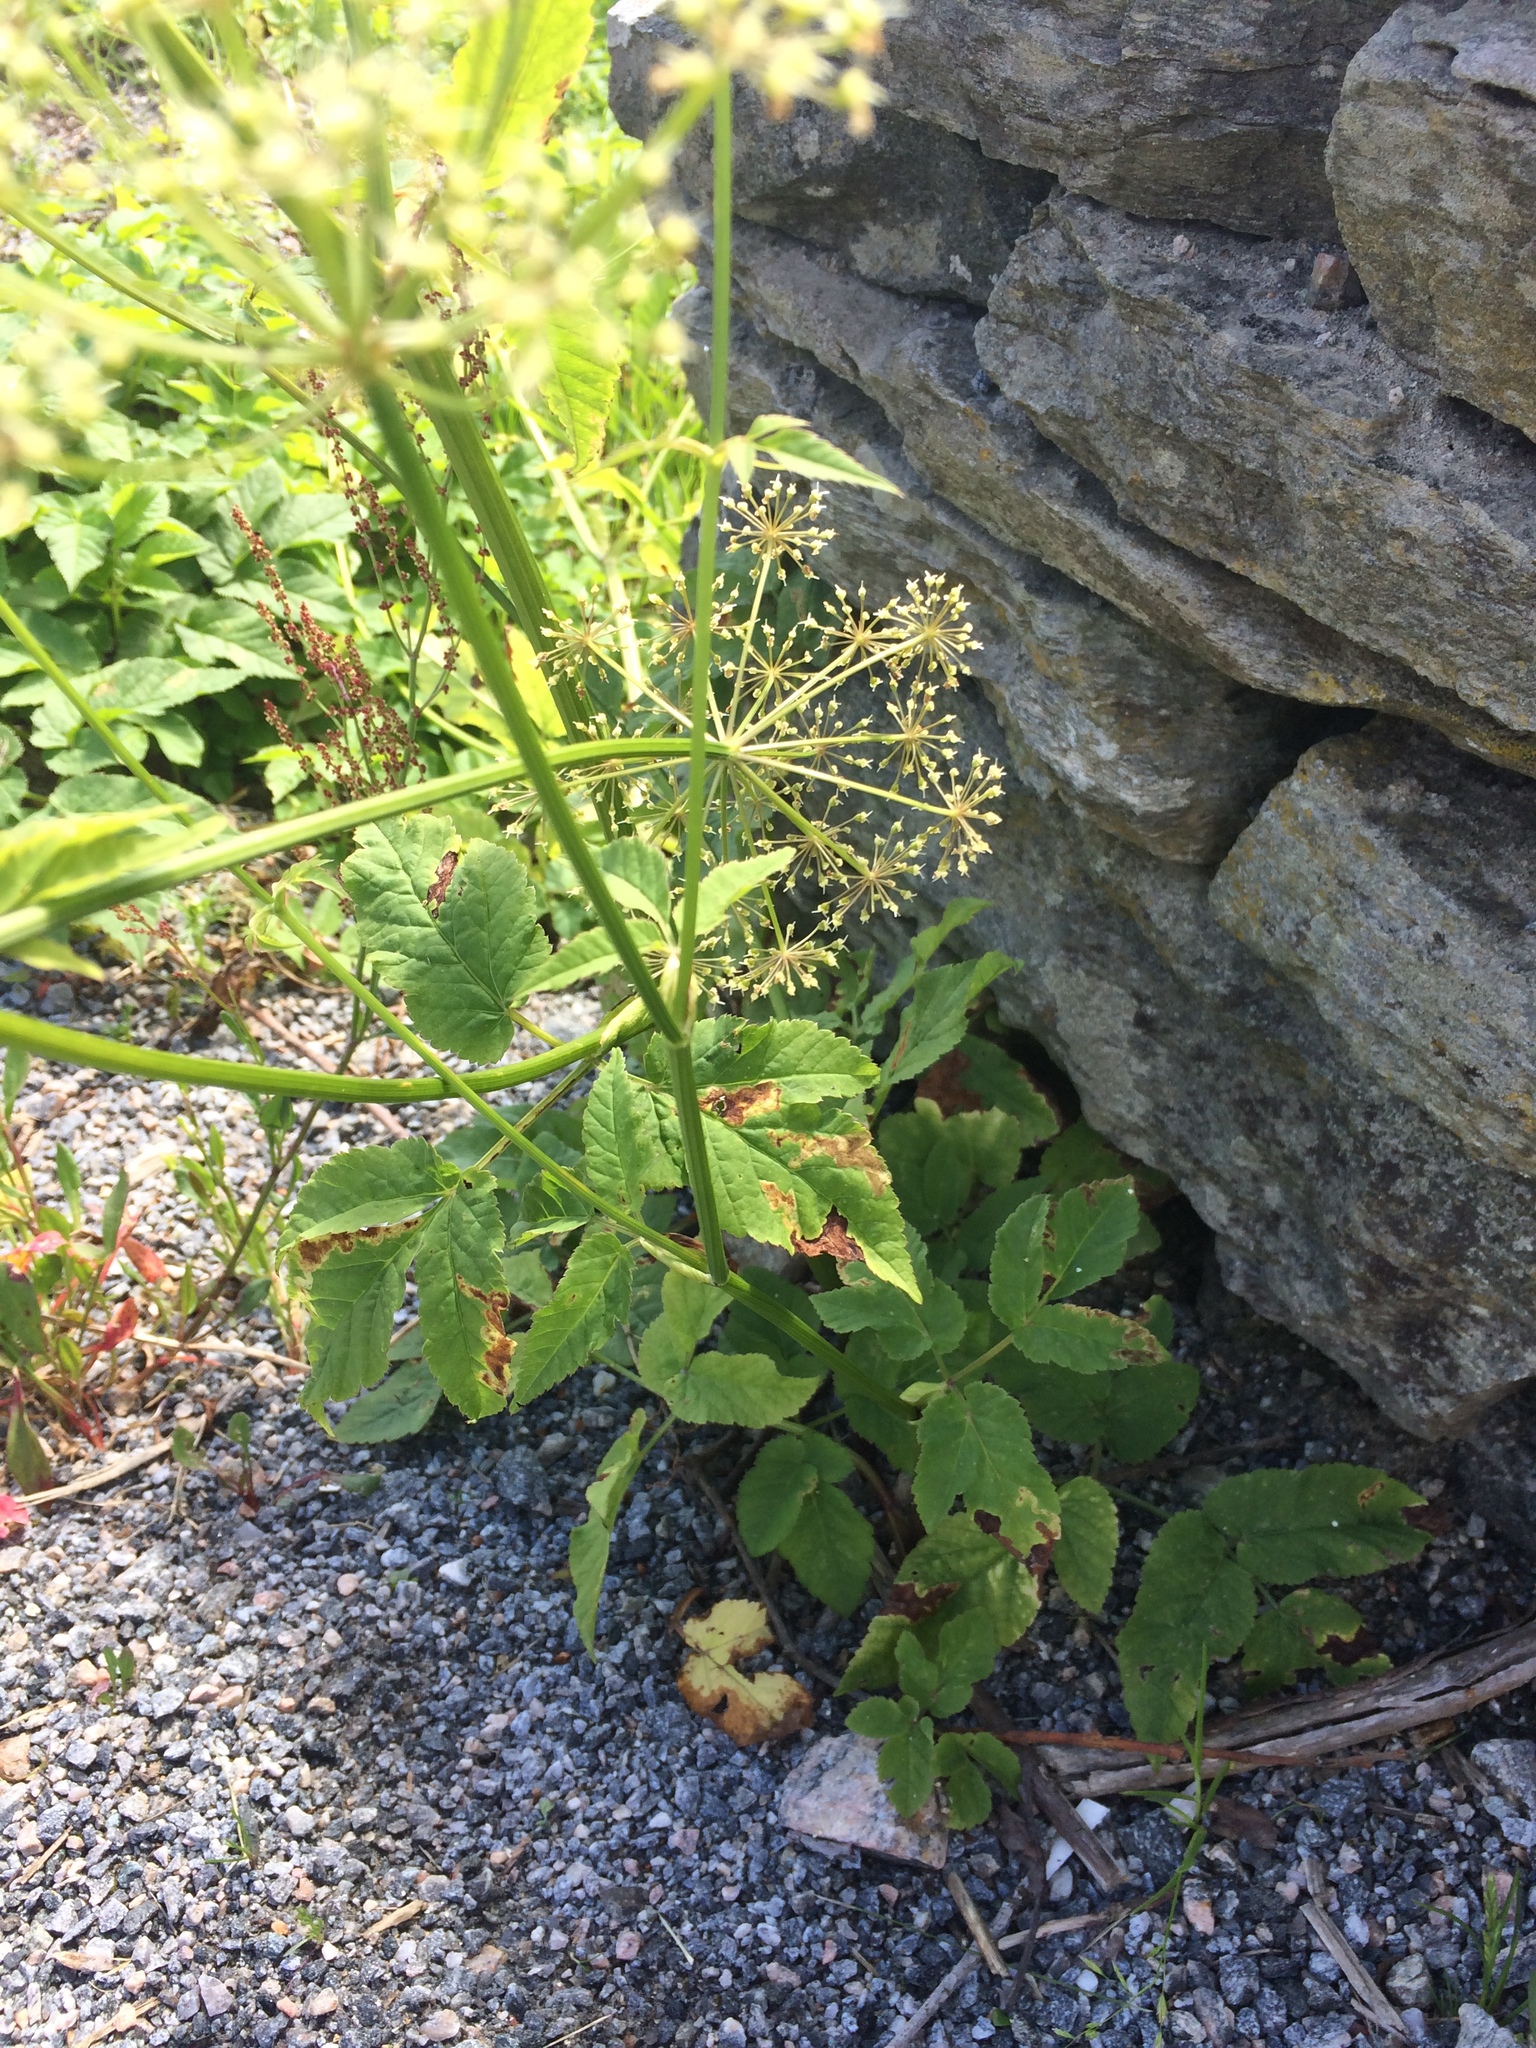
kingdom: Plantae
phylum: Tracheophyta
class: Magnoliopsida
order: Apiales
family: Apiaceae
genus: Aegopodium
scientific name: Aegopodium podagraria
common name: Ground-elder
